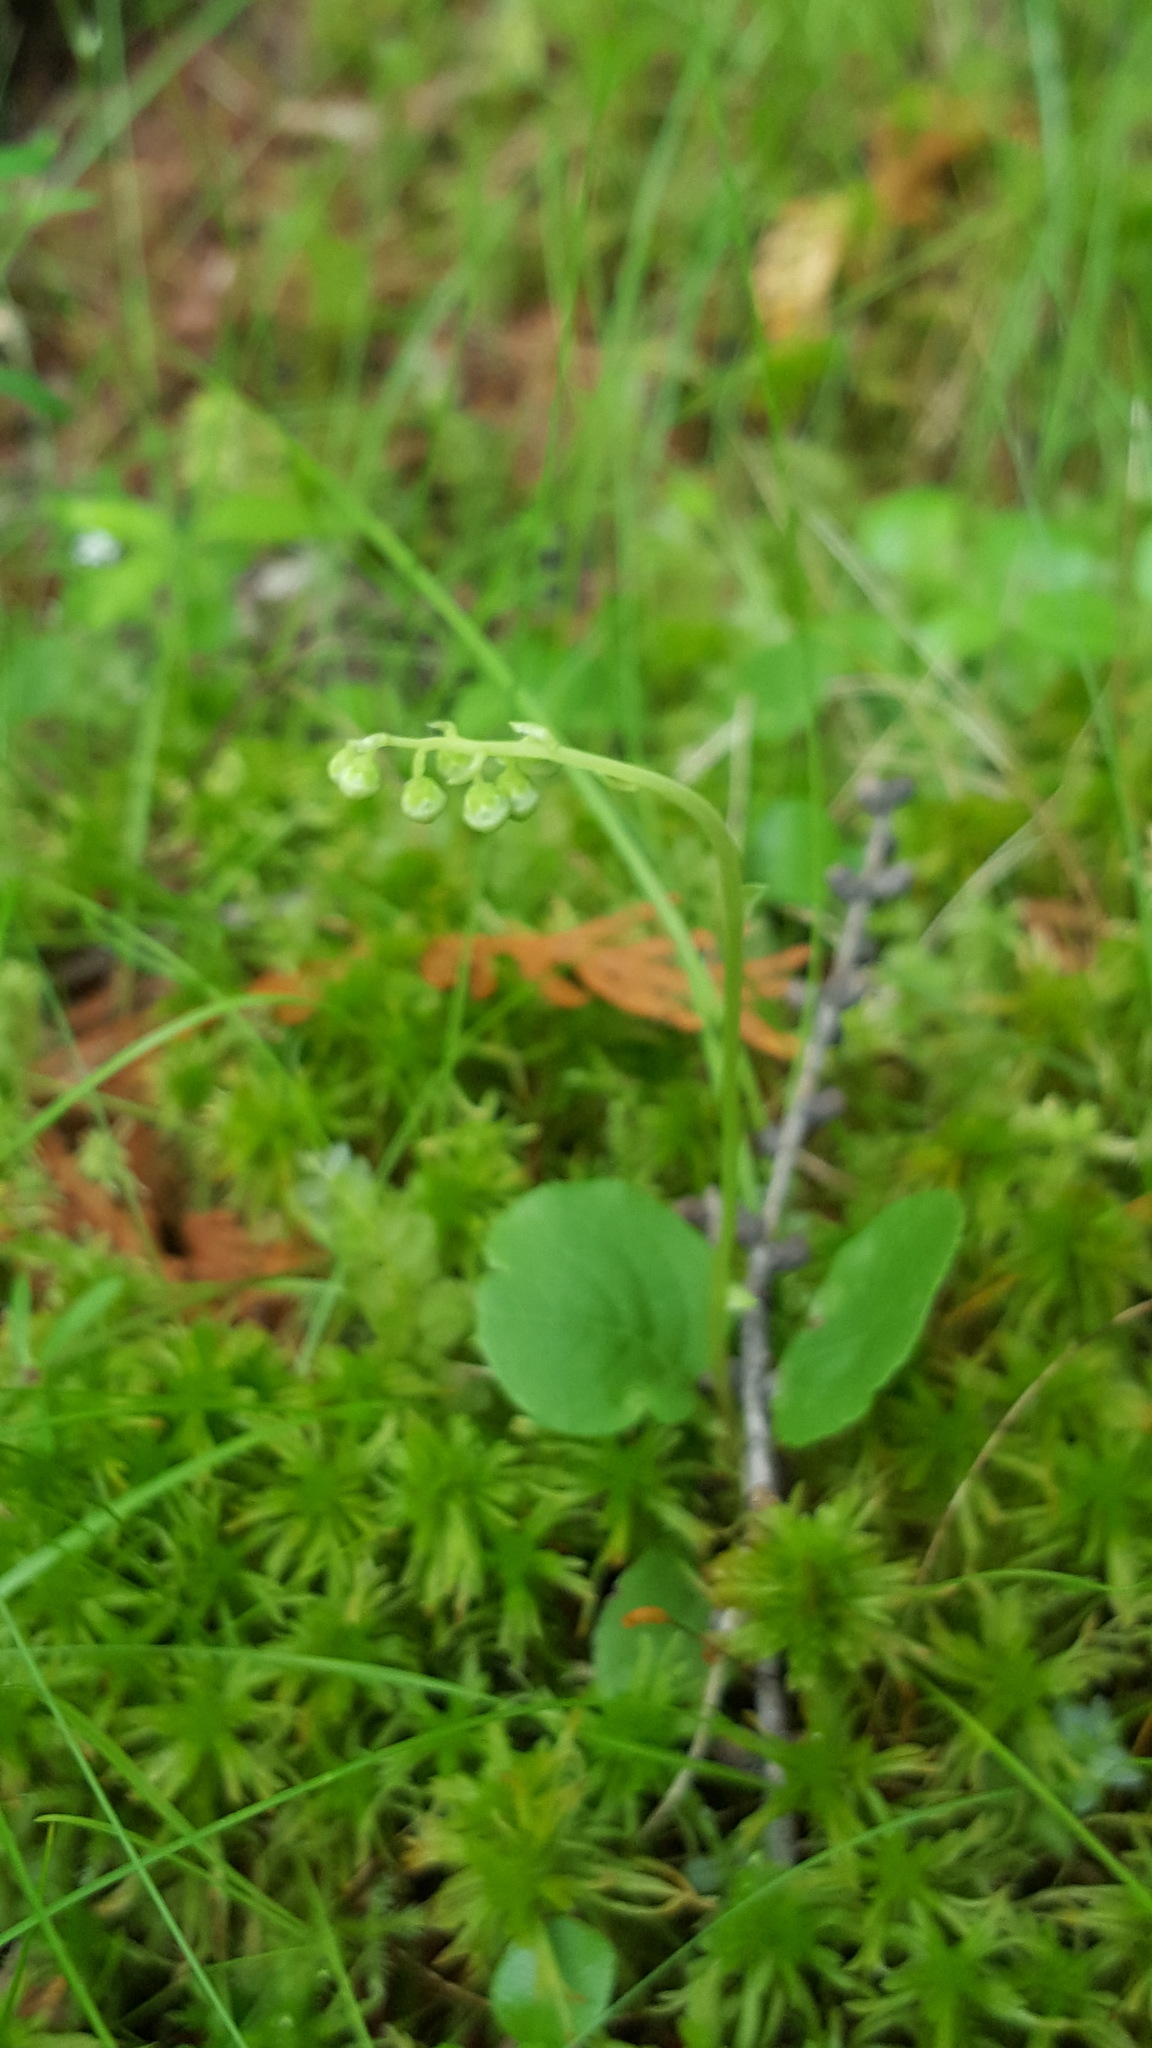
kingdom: Plantae
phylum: Tracheophyta
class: Magnoliopsida
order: Ericales
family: Ericaceae
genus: Orthilia
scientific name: Orthilia secunda
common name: One-sided orthilia
